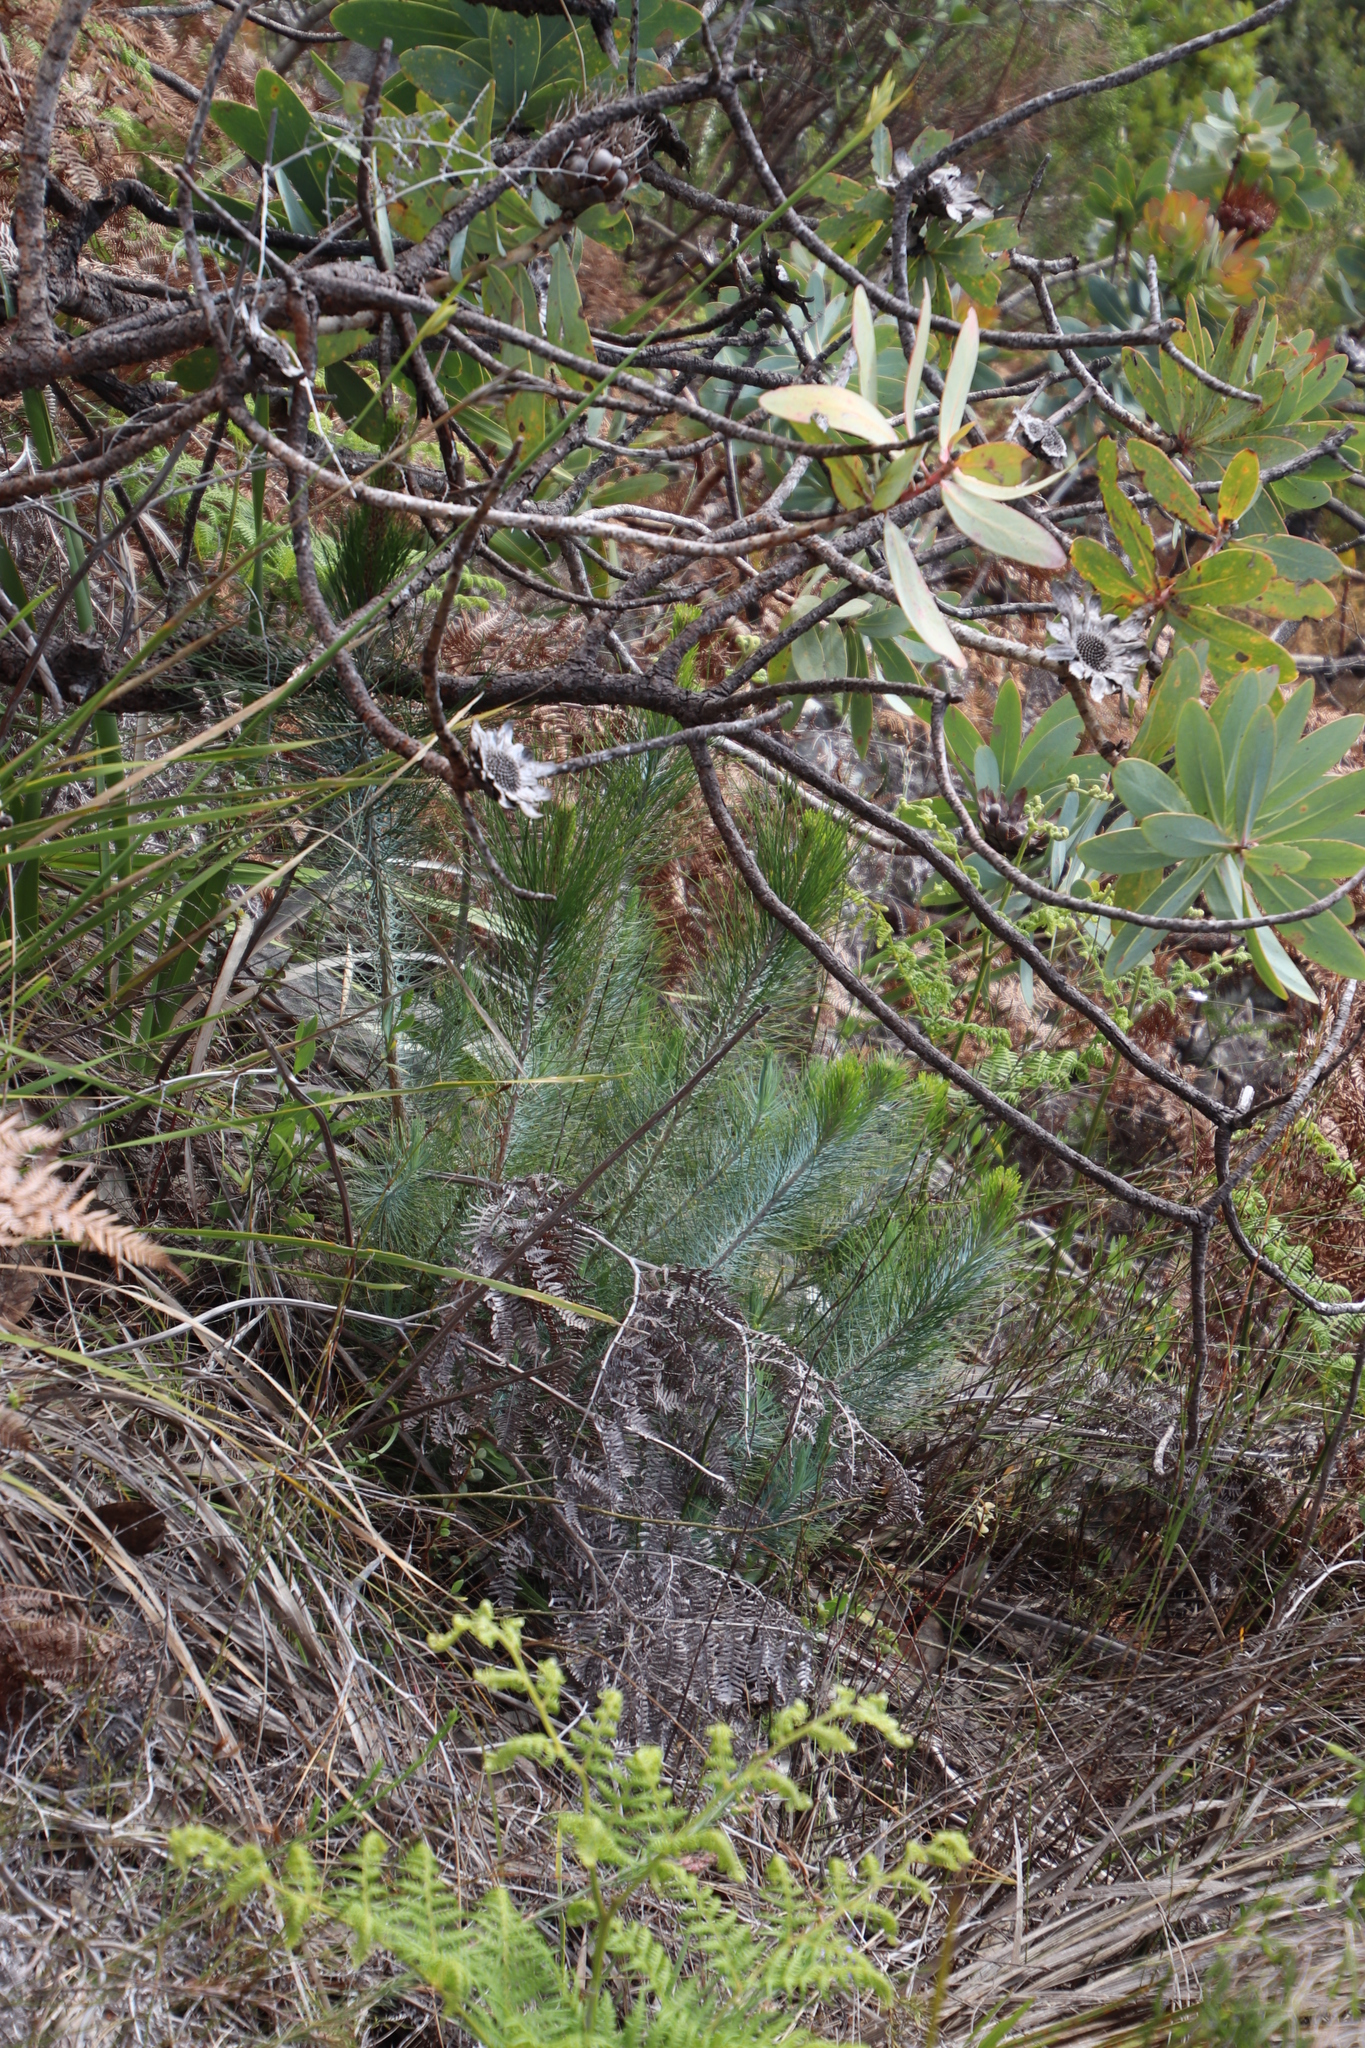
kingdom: Plantae
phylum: Tracheophyta
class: Pinopsida
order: Pinales
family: Pinaceae
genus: Pinus
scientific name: Pinus canariensis
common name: Canary islands pine
